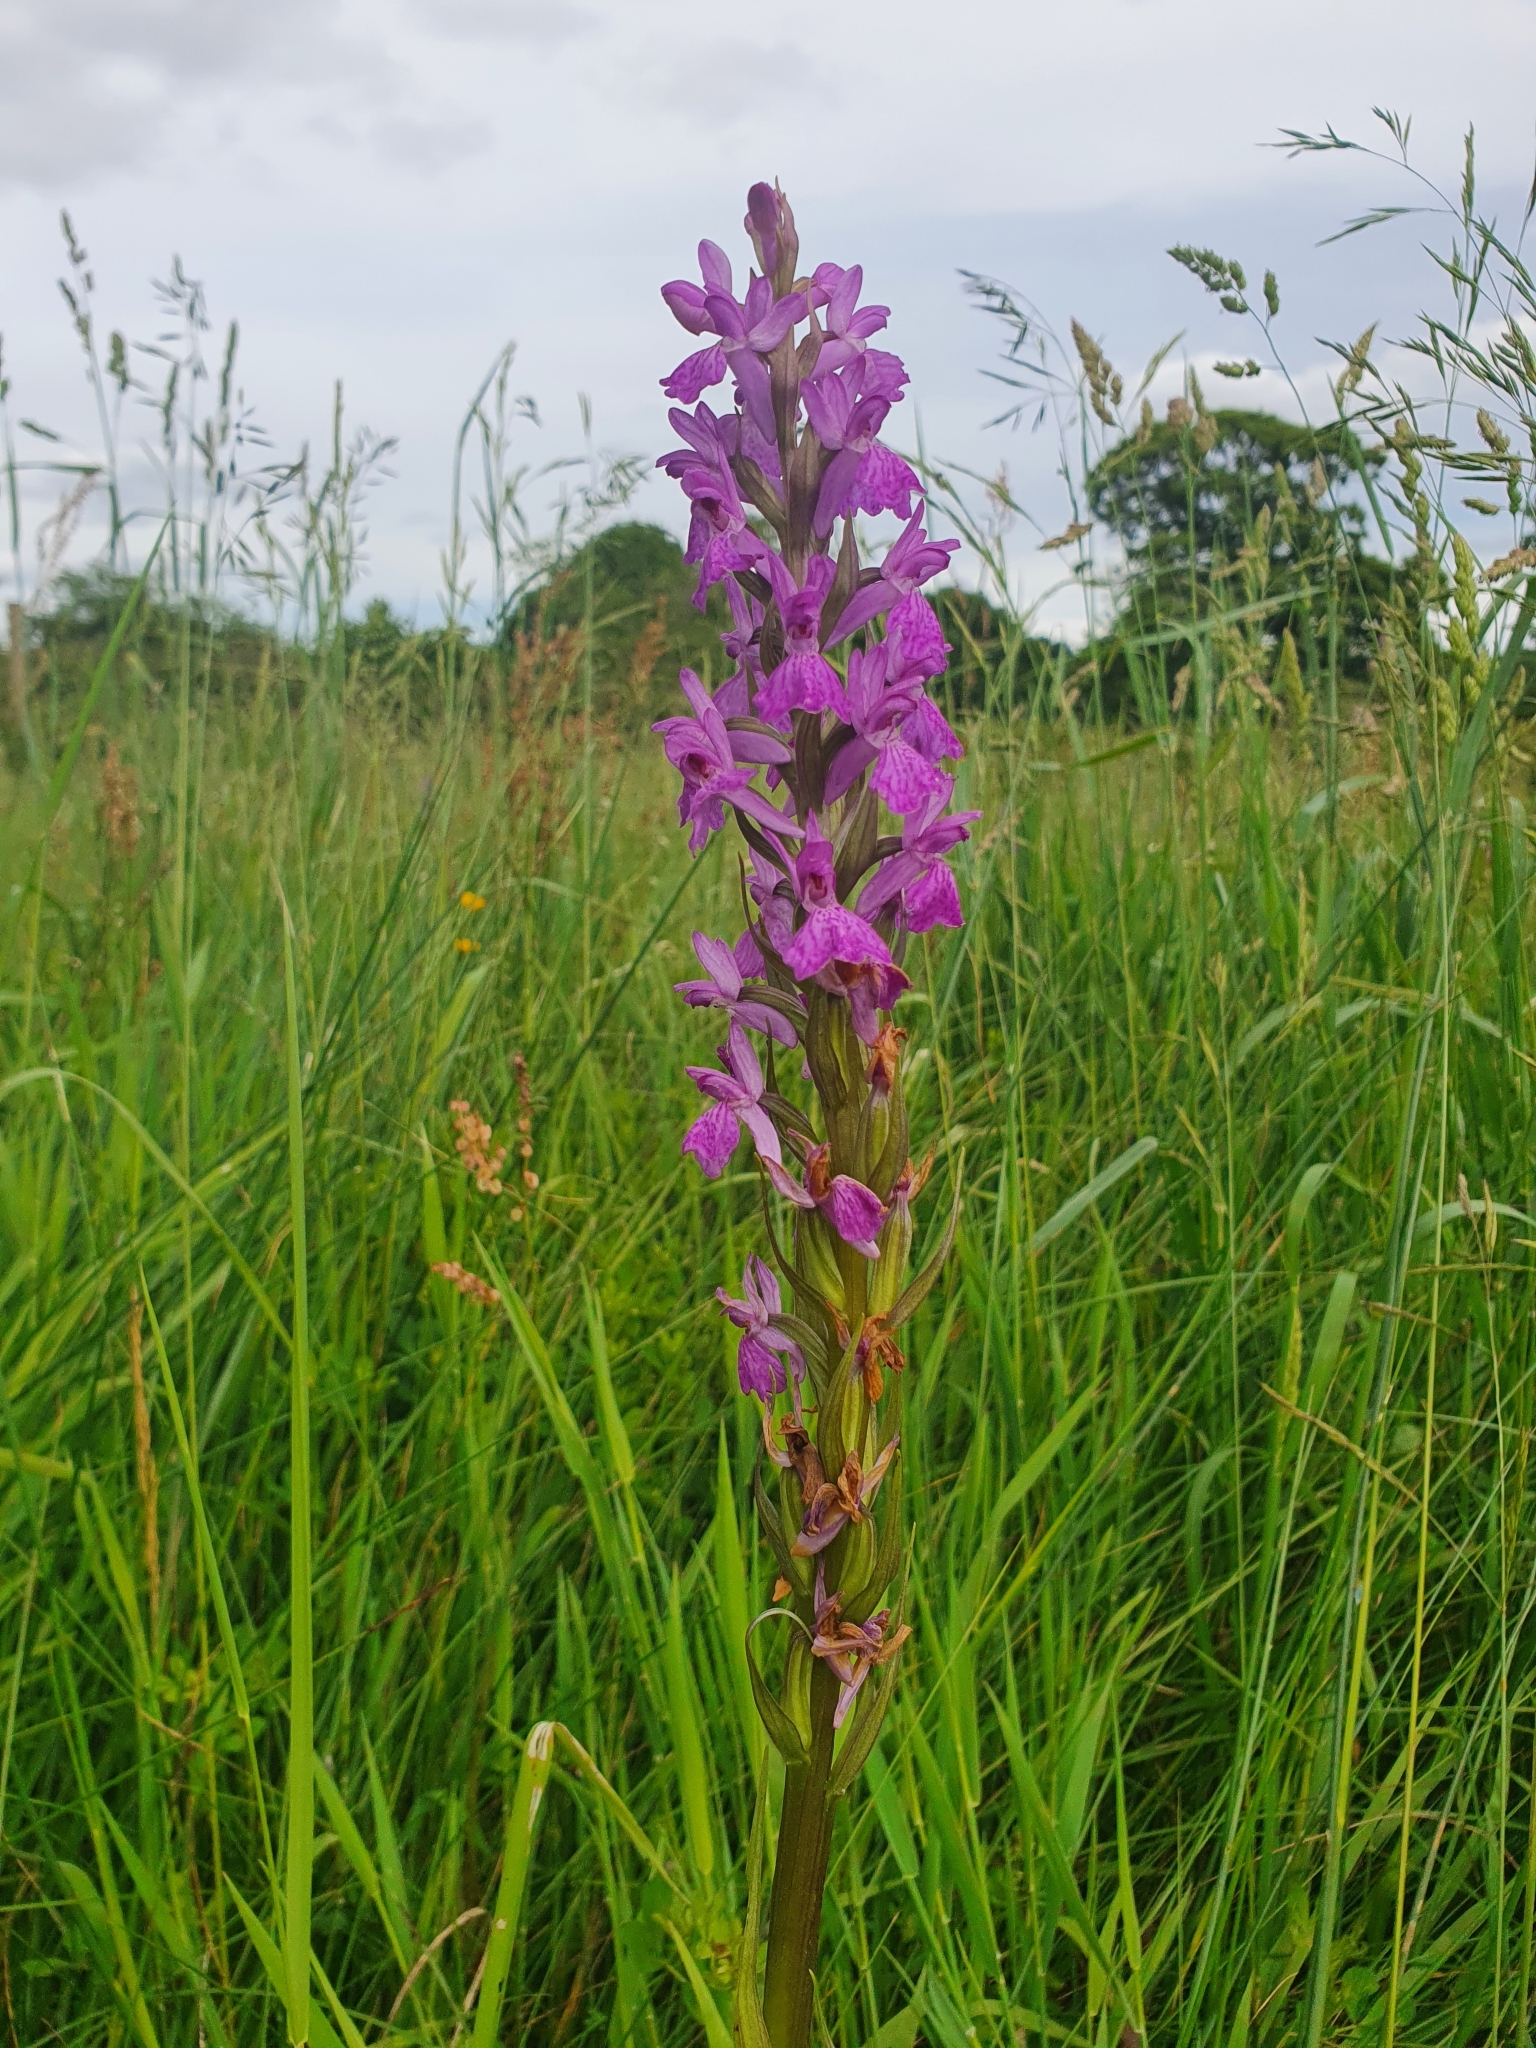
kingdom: Plantae
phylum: Tracheophyta
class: Liliopsida
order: Asparagales
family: Orchidaceae
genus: Dactylorhiza
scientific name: Dactylorhiza elata
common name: Stately dactylorhiza
